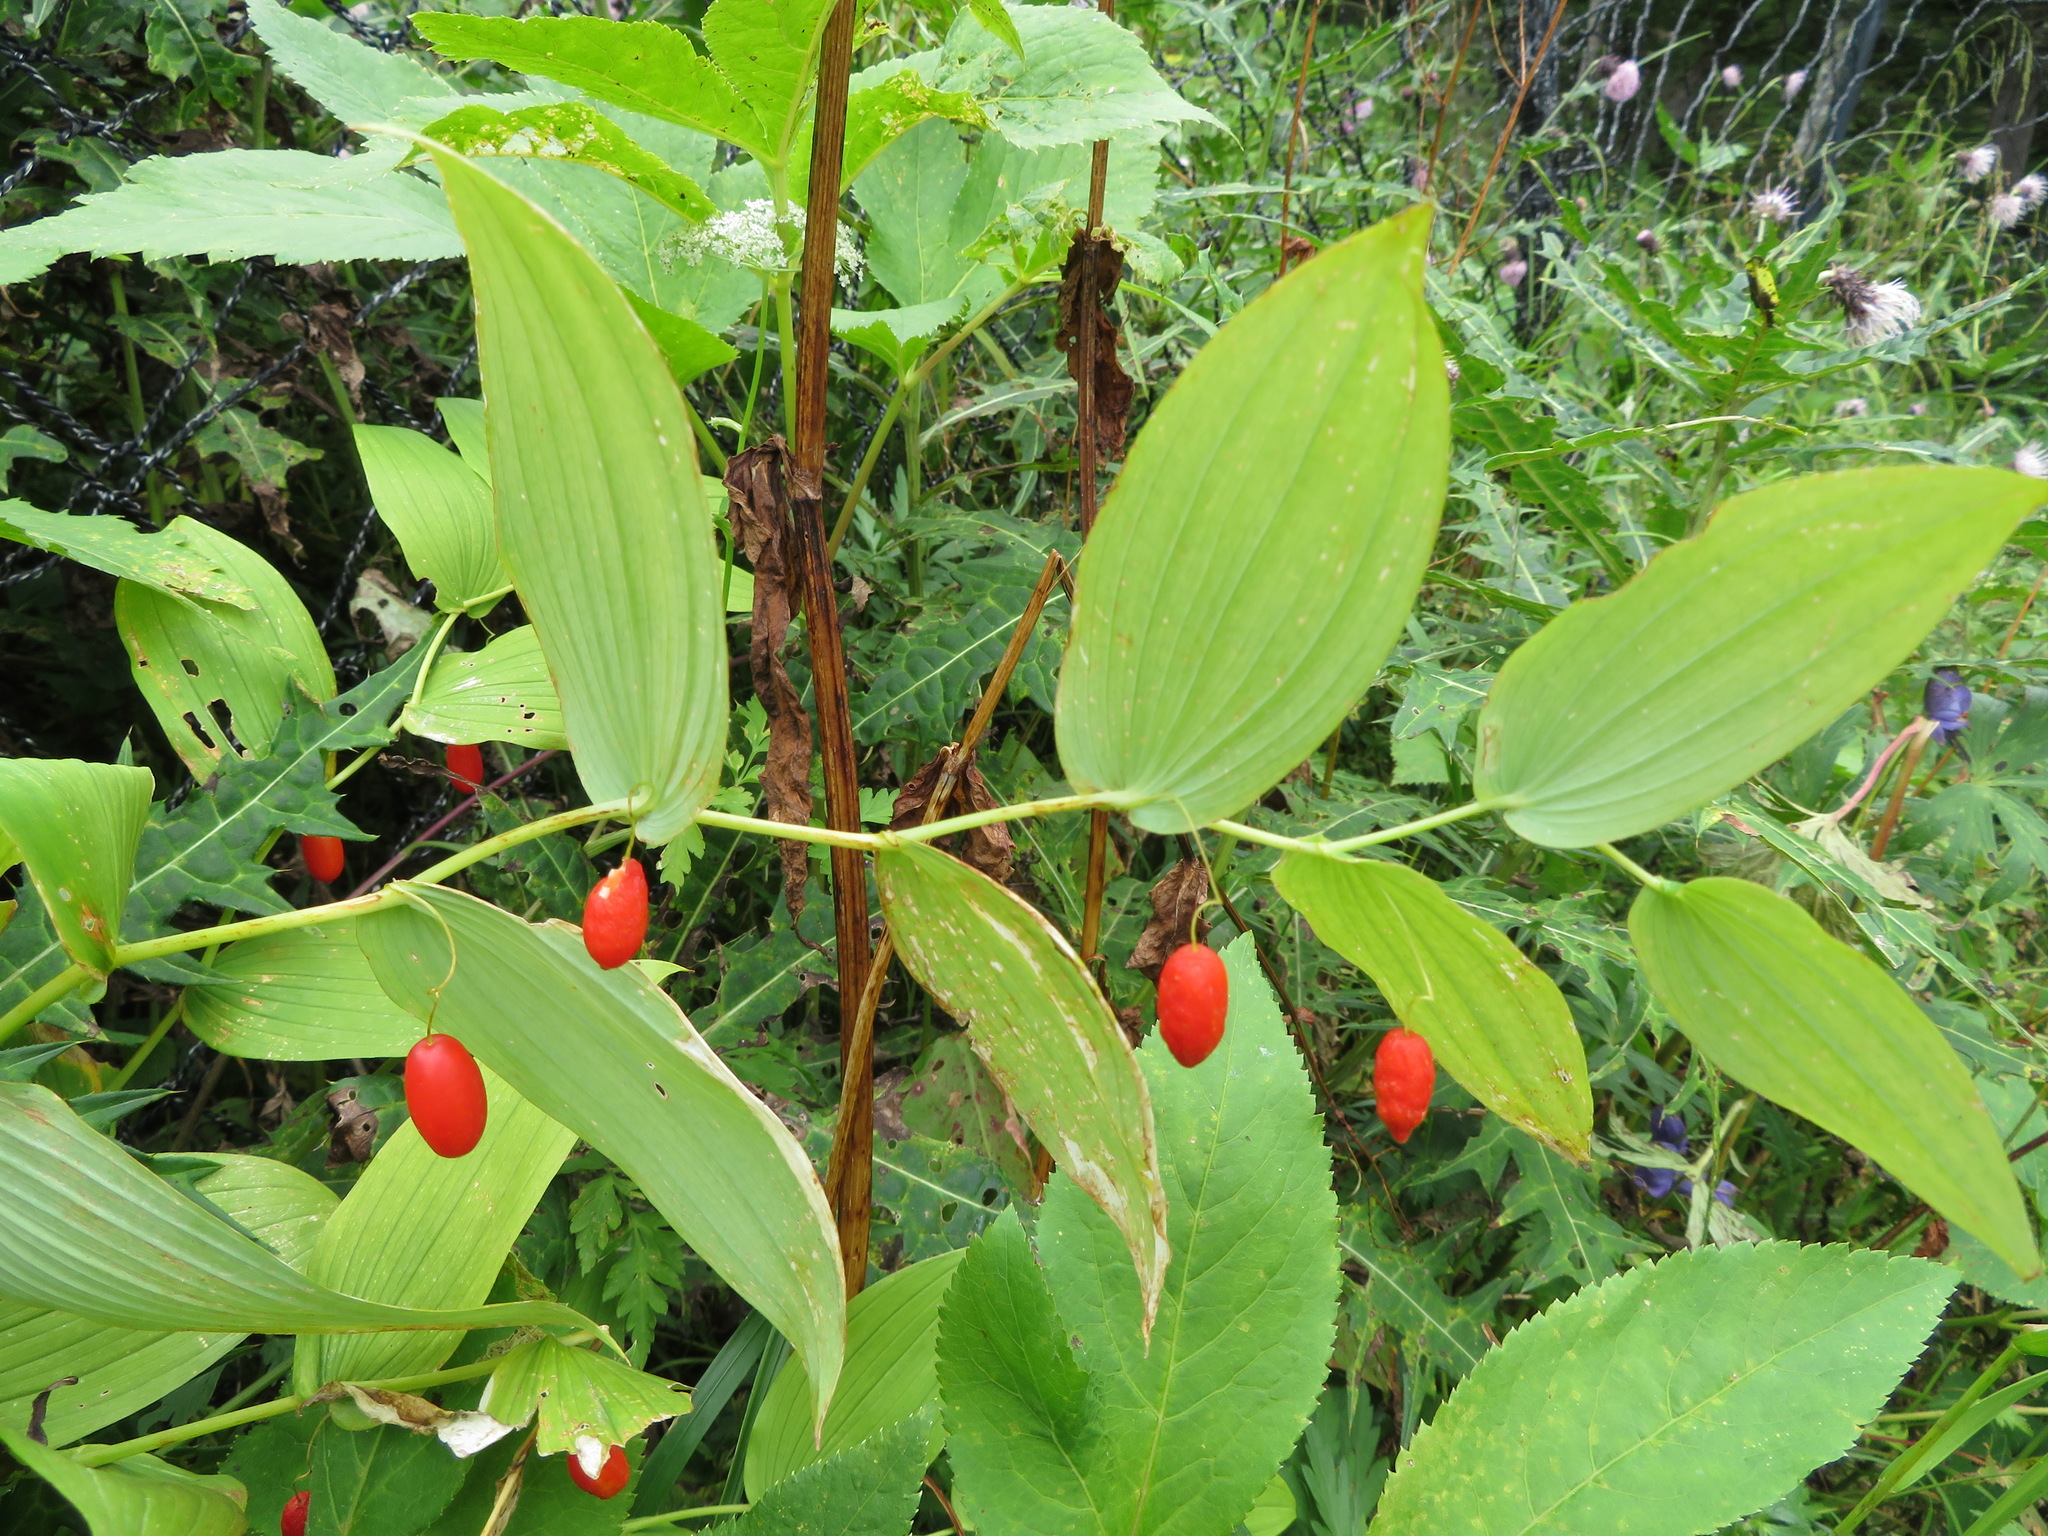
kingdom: Plantae
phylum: Tracheophyta
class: Liliopsida
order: Liliales
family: Liliaceae
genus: Streptopus
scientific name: Streptopus amplexifolius
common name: Clasp twisted stalk
